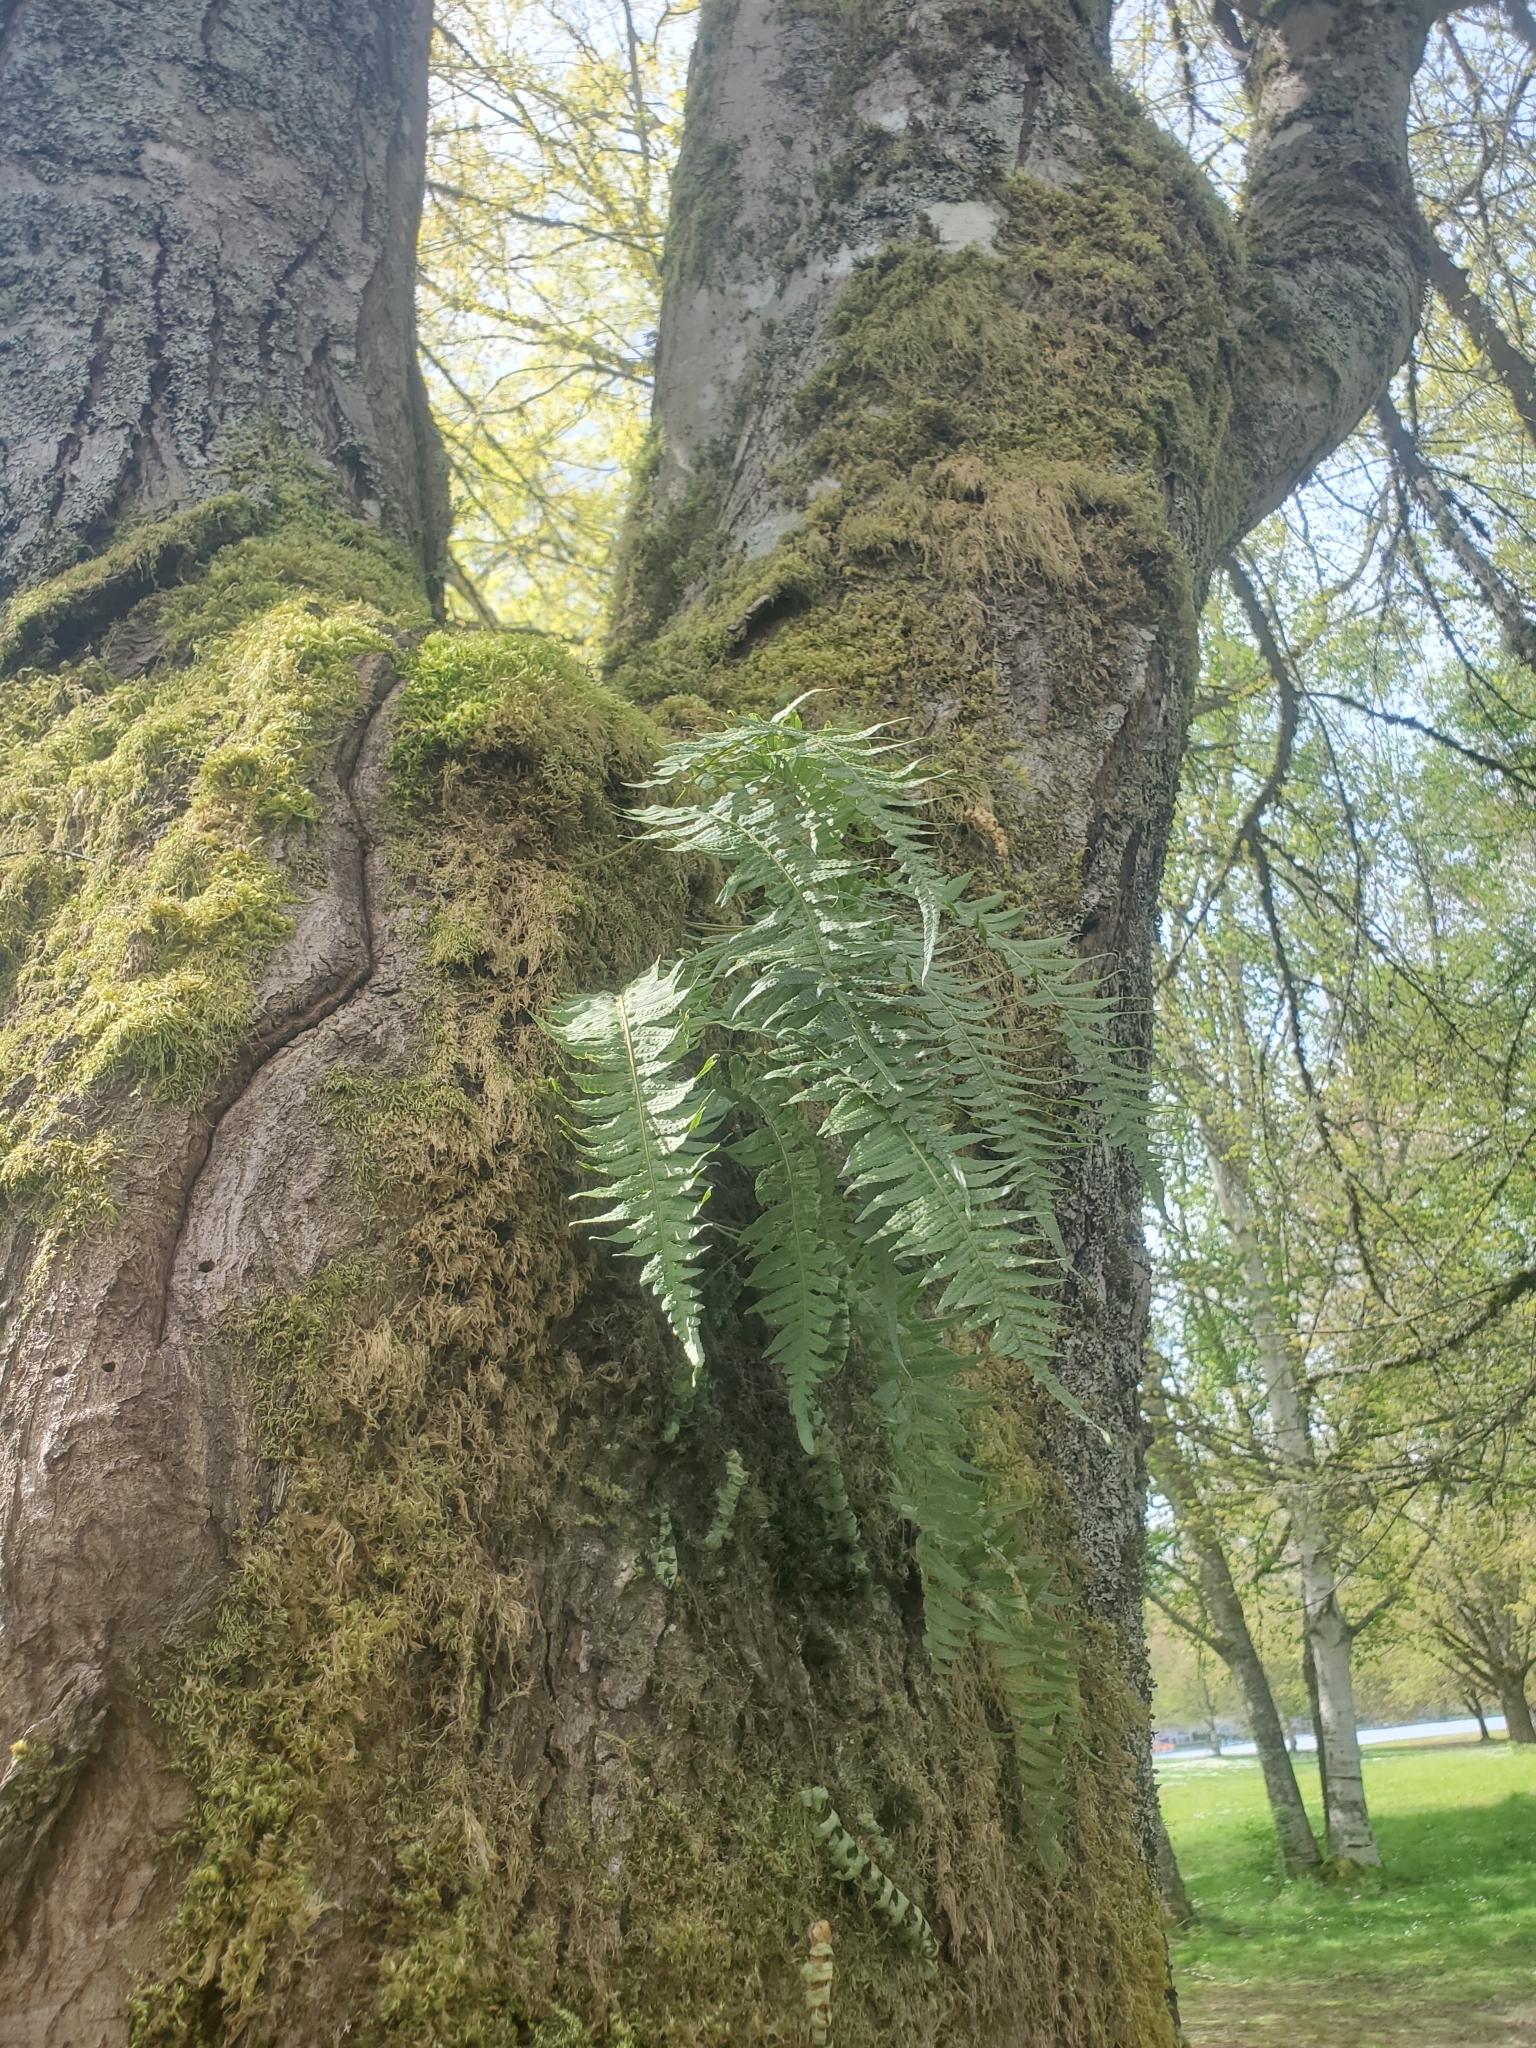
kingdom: Plantae
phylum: Tracheophyta
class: Polypodiopsida
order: Polypodiales
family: Polypodiaceae
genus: Polypodium
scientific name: Polypodium glycyrrhiza
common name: Licorice fern
